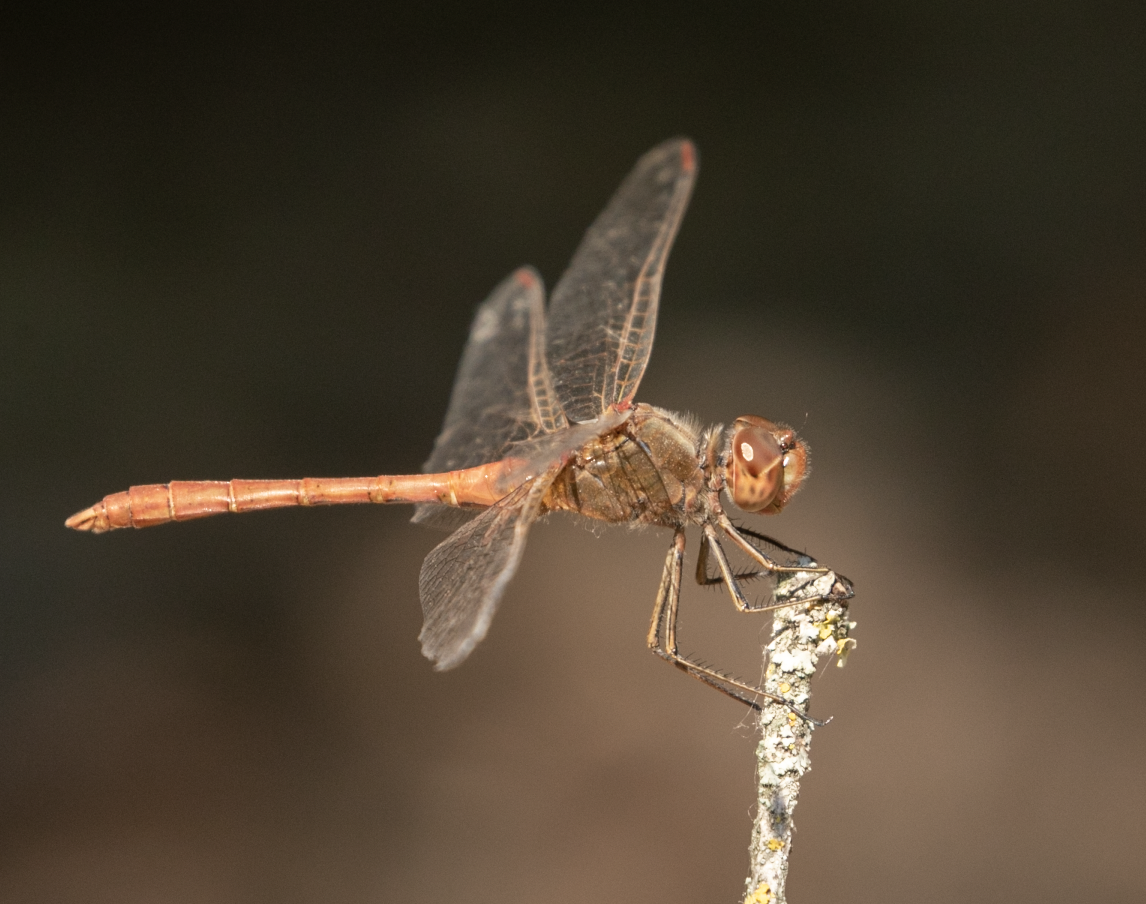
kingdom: Animalia
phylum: Arthropoda
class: Insecta
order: Odonata
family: Libellulidae
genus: Sympetrum
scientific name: Sympetrum meridionale
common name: Southern darter
